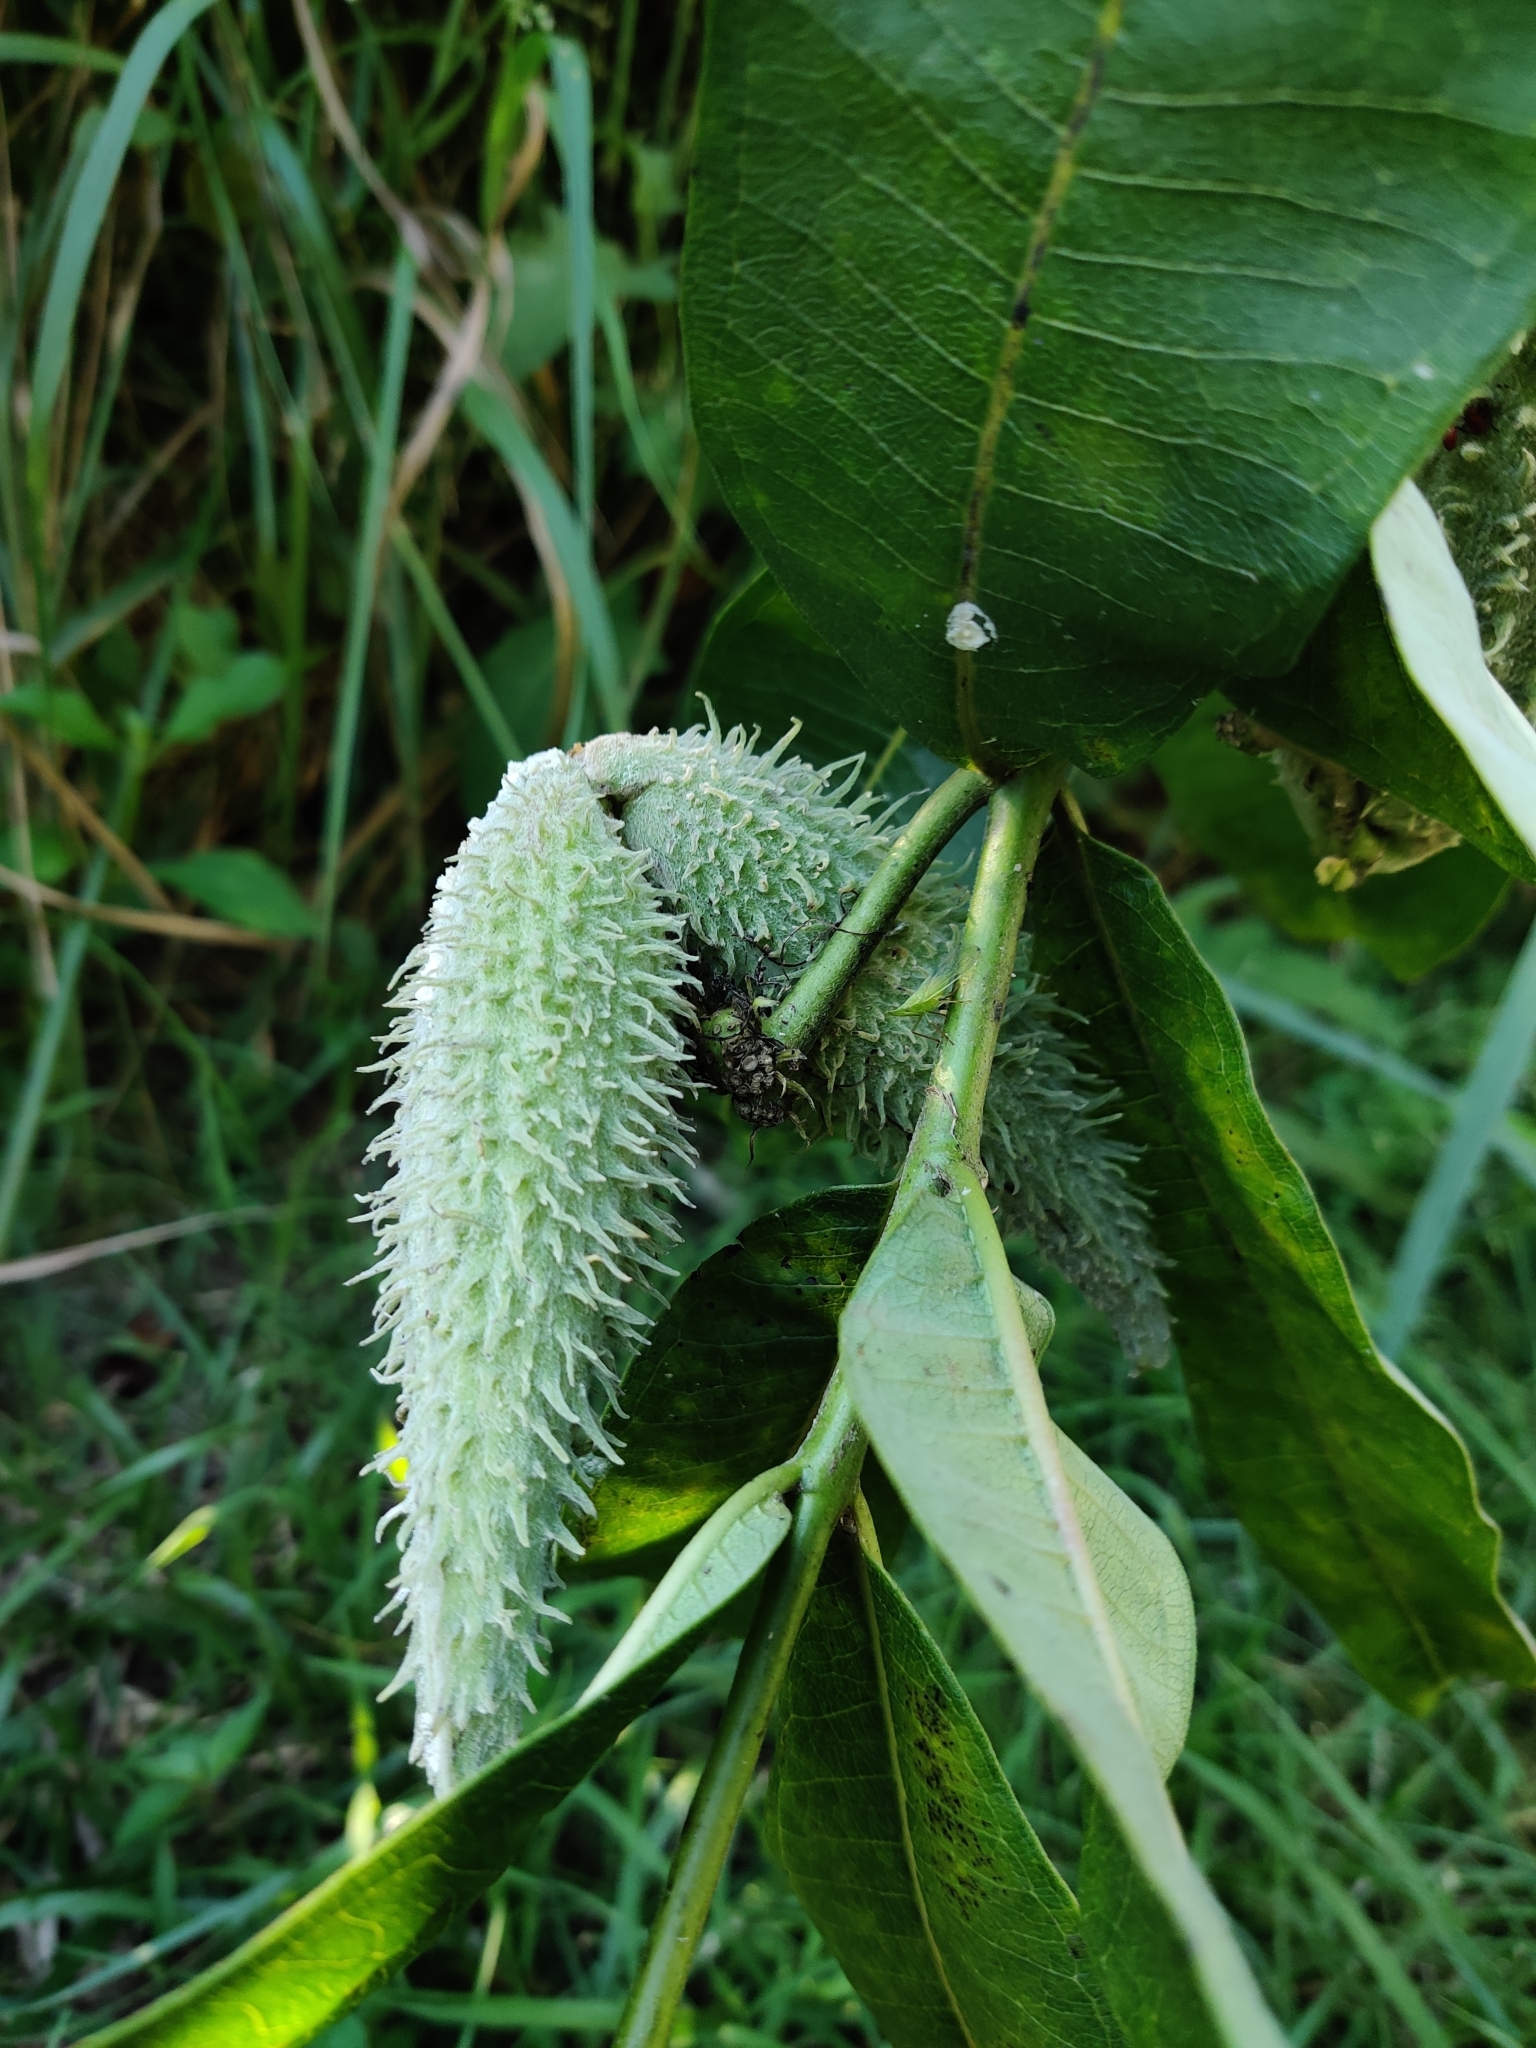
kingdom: Plantae
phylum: Tracheophyta
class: Magnoliopsida
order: Gentianales
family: Apocynaceae
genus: Asclepias
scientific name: Asclepias syriaca
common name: Common milkweed
